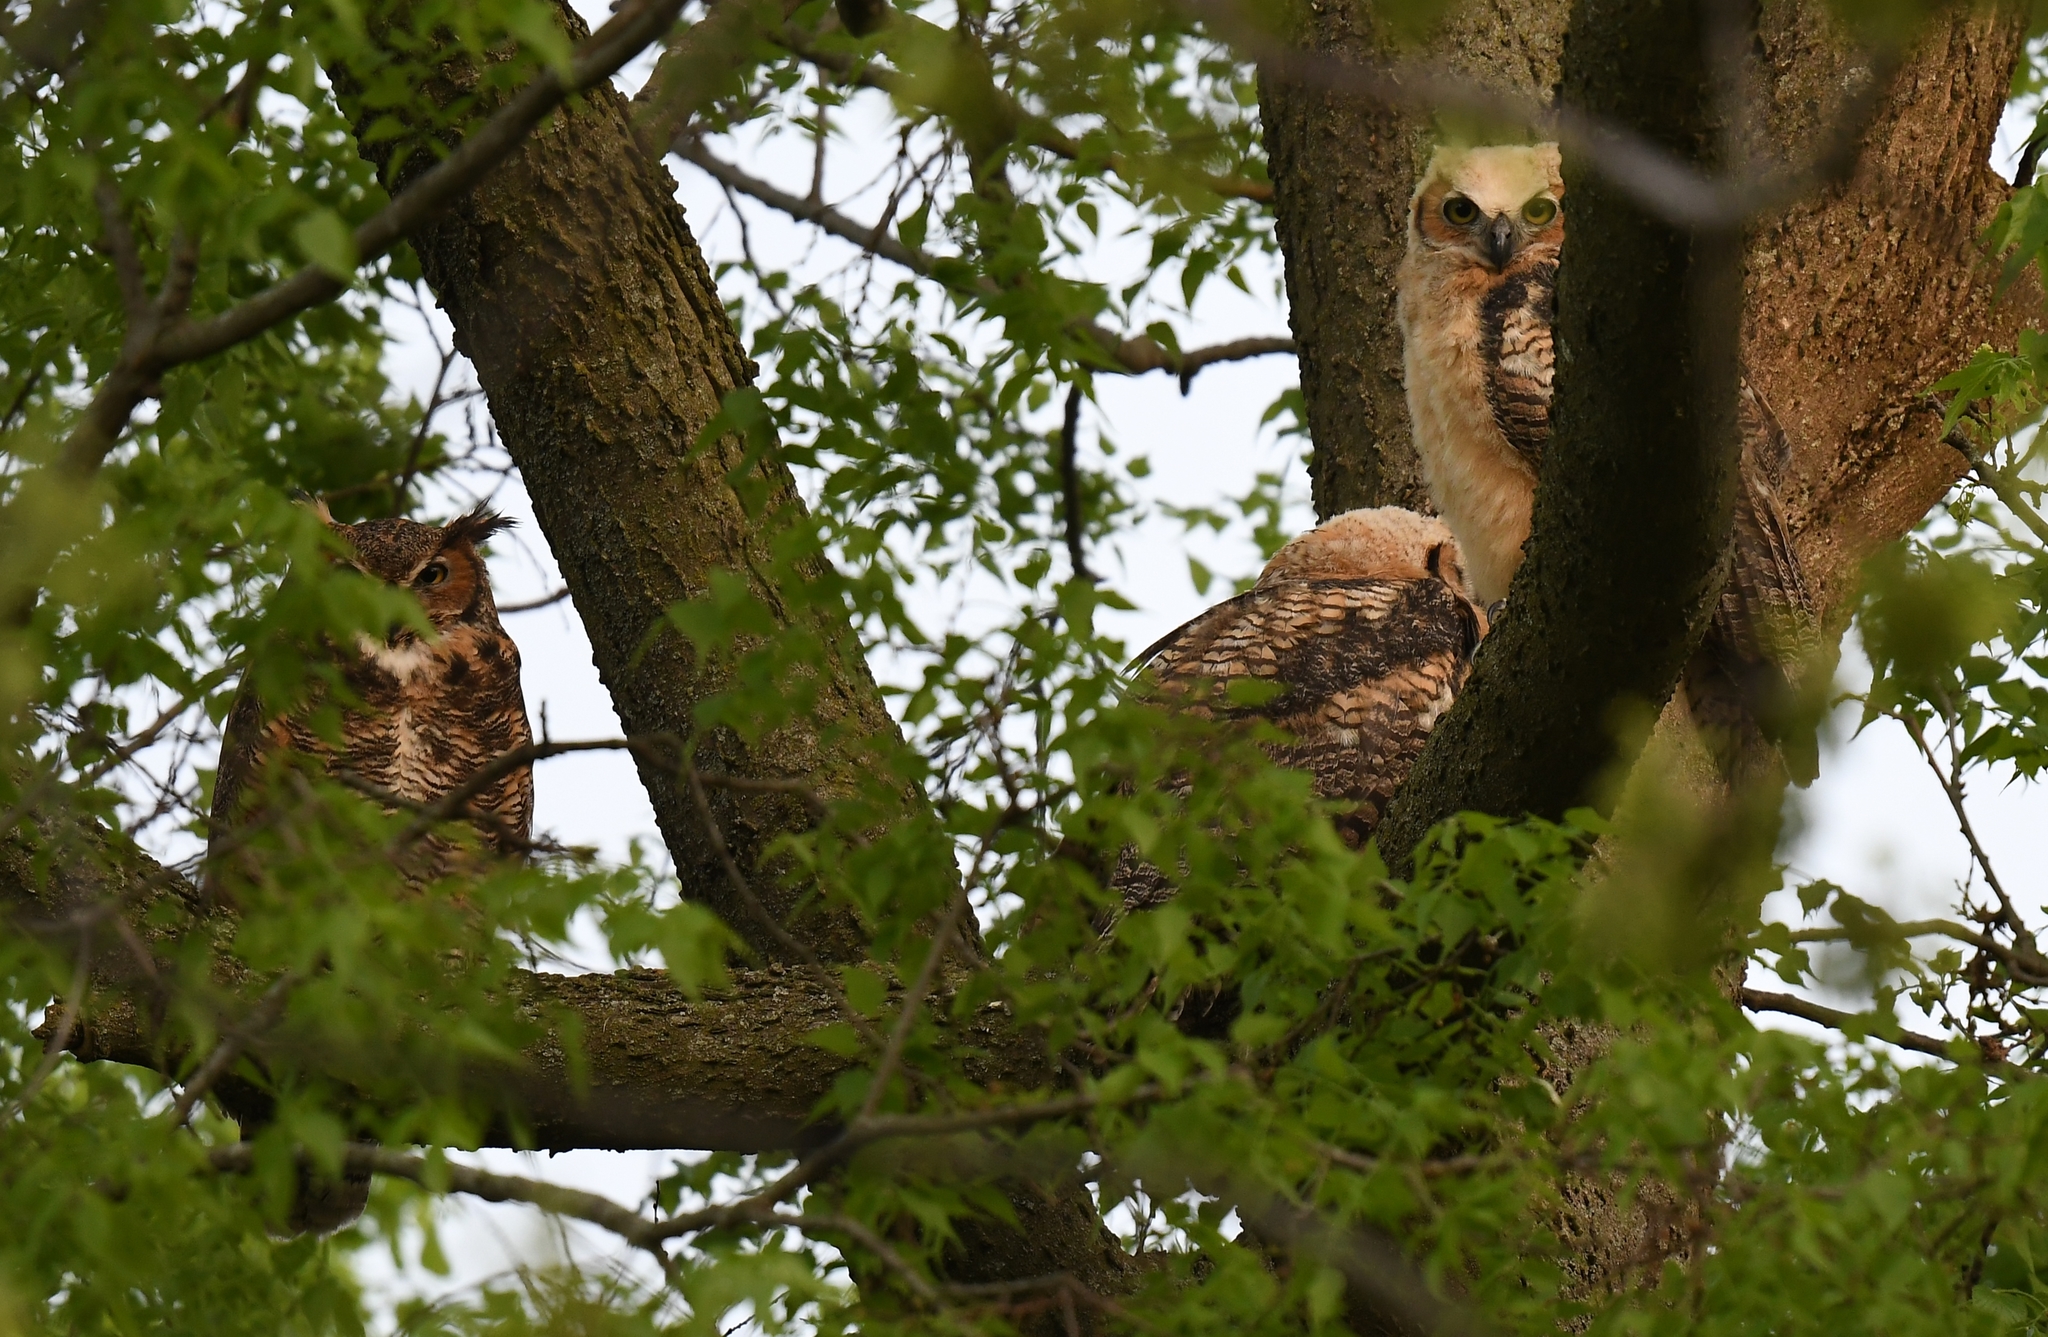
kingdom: Animalia
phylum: Chordata
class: Aves
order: Strigiformes
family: Strigidae
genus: Bubo
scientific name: Bubo virginianus
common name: Great horned owl
